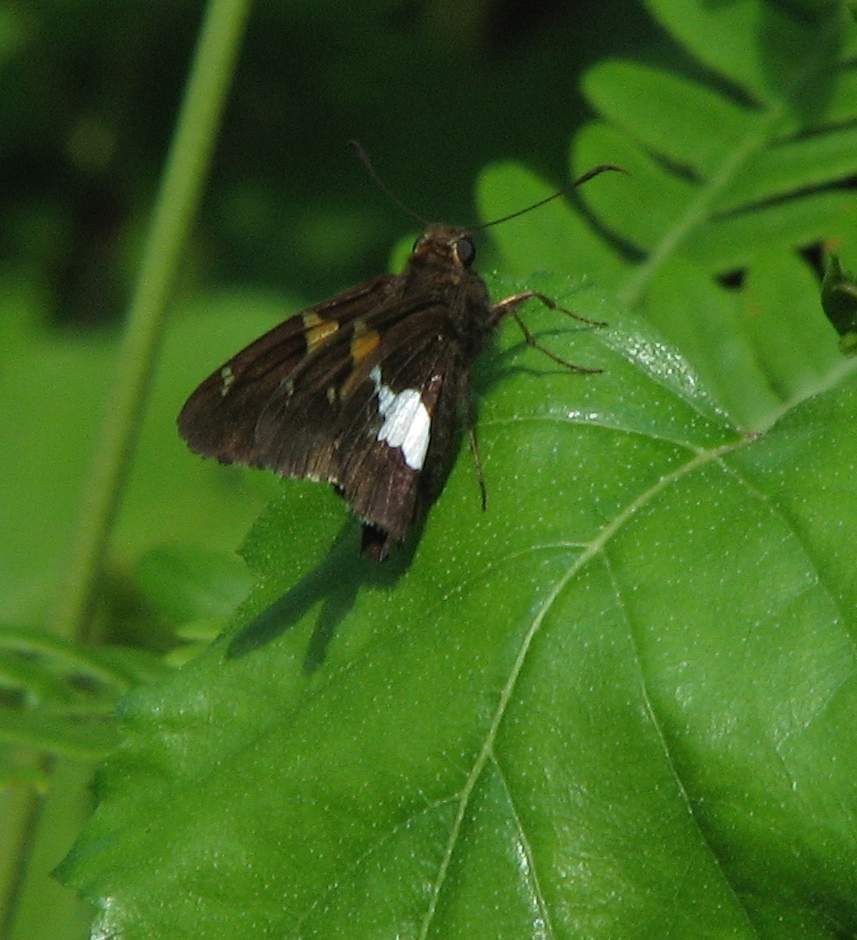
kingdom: Animalia
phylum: Arthropoda
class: Insecta
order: Lepidoptera
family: Hesperiidae
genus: Epargyreus
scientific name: Epargyreus clarus
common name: Silver-spotted skipper
